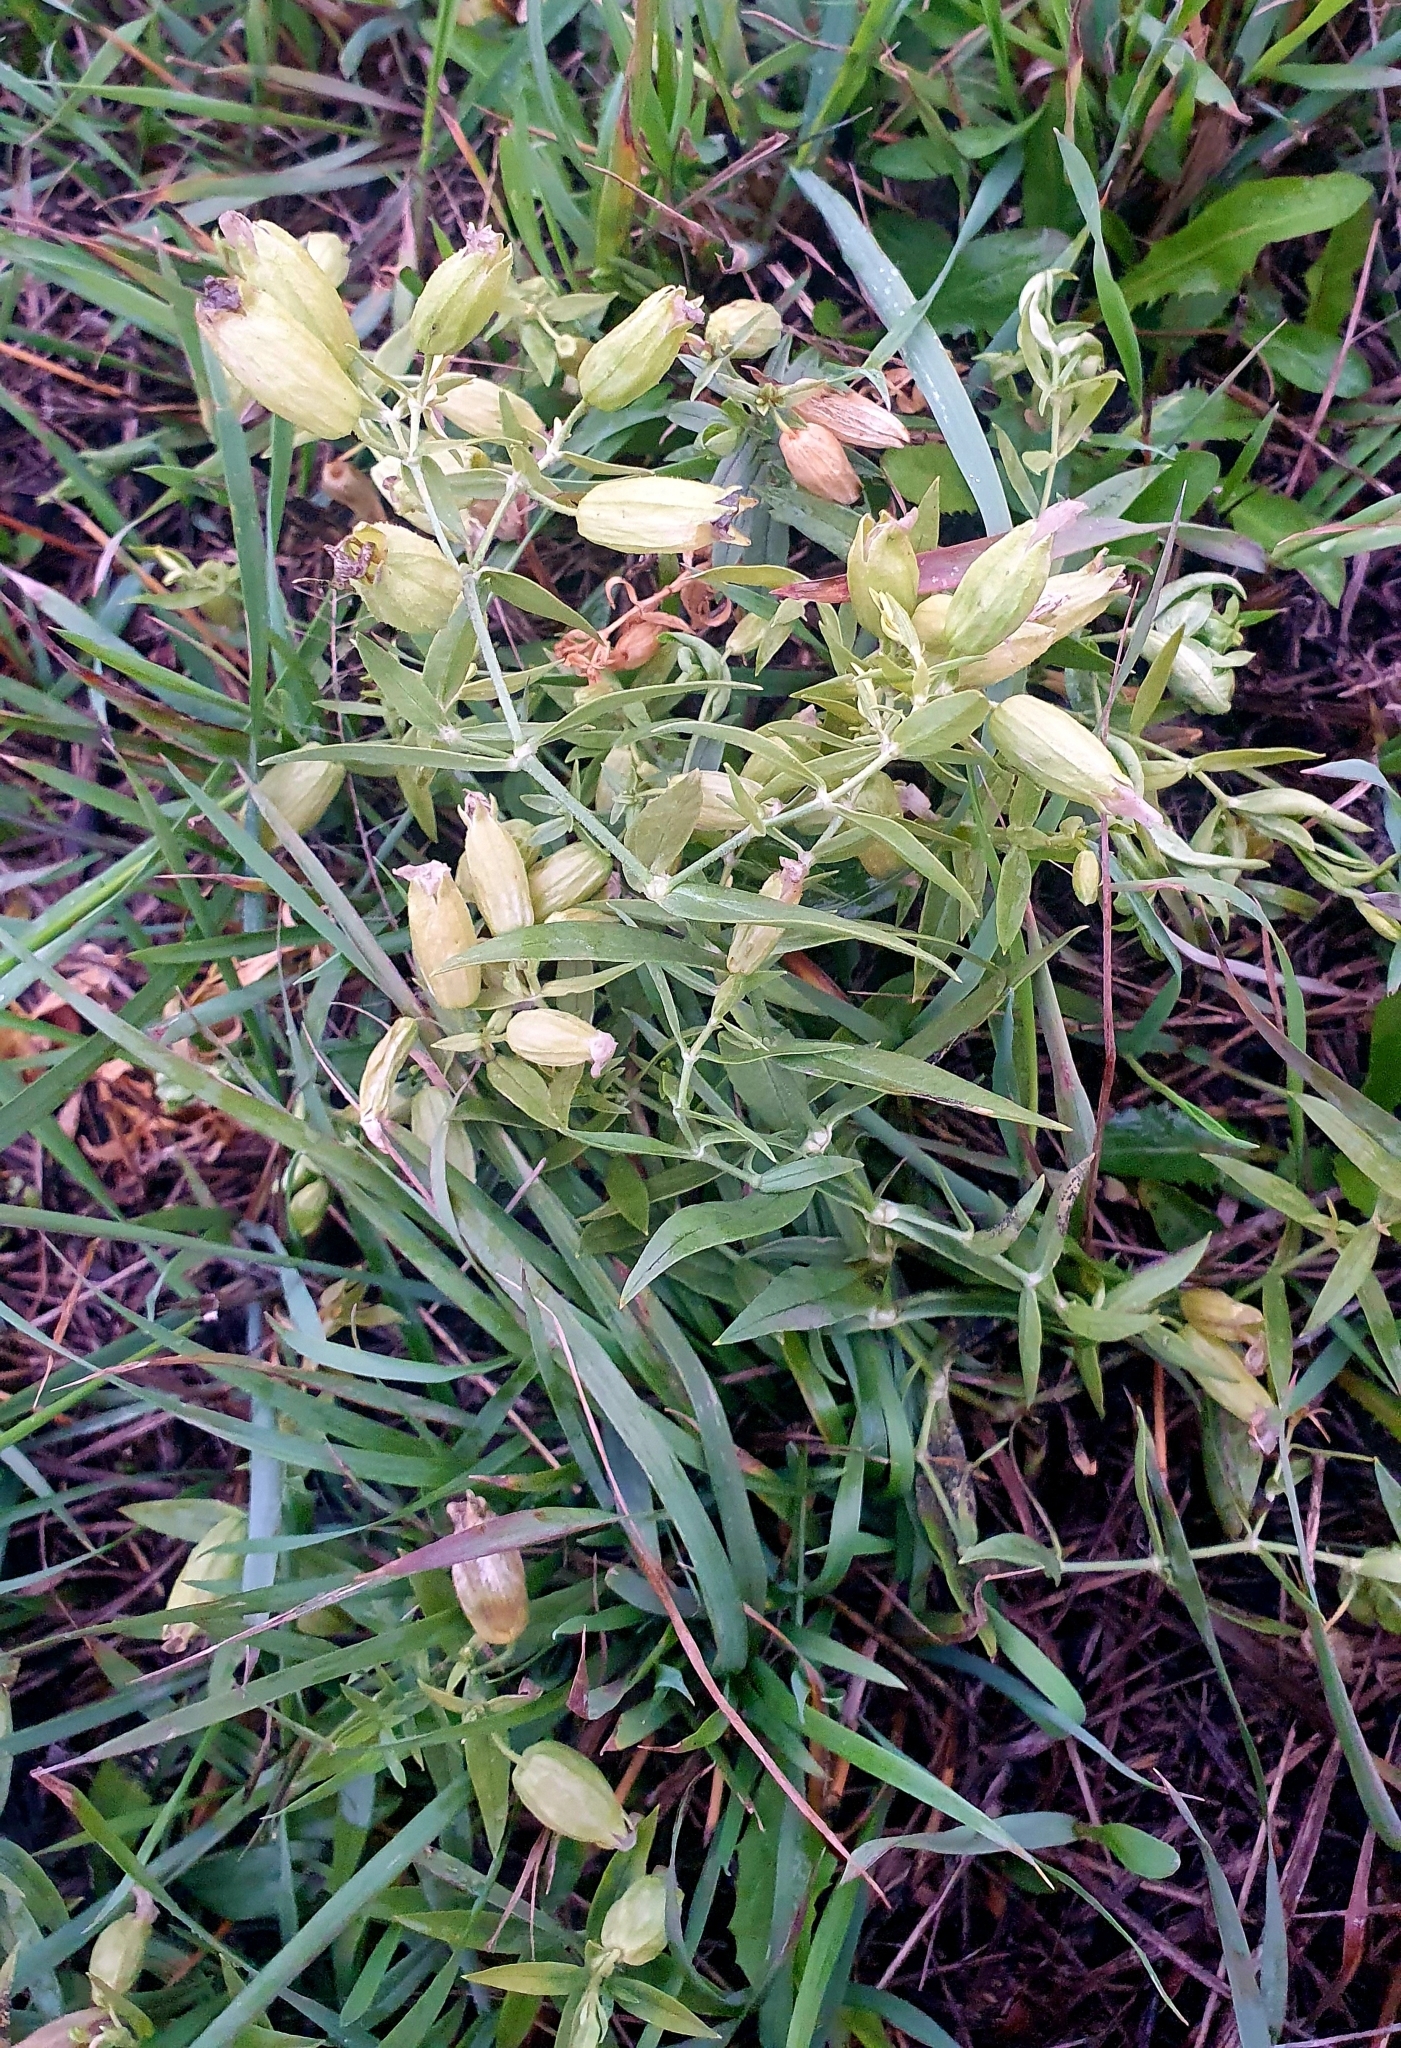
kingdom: Plantae
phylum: Tracheophyta
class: Magnoliopsida
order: Caryophyllales
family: Caryophyllaceae
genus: Silene
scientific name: Silene procumbens
